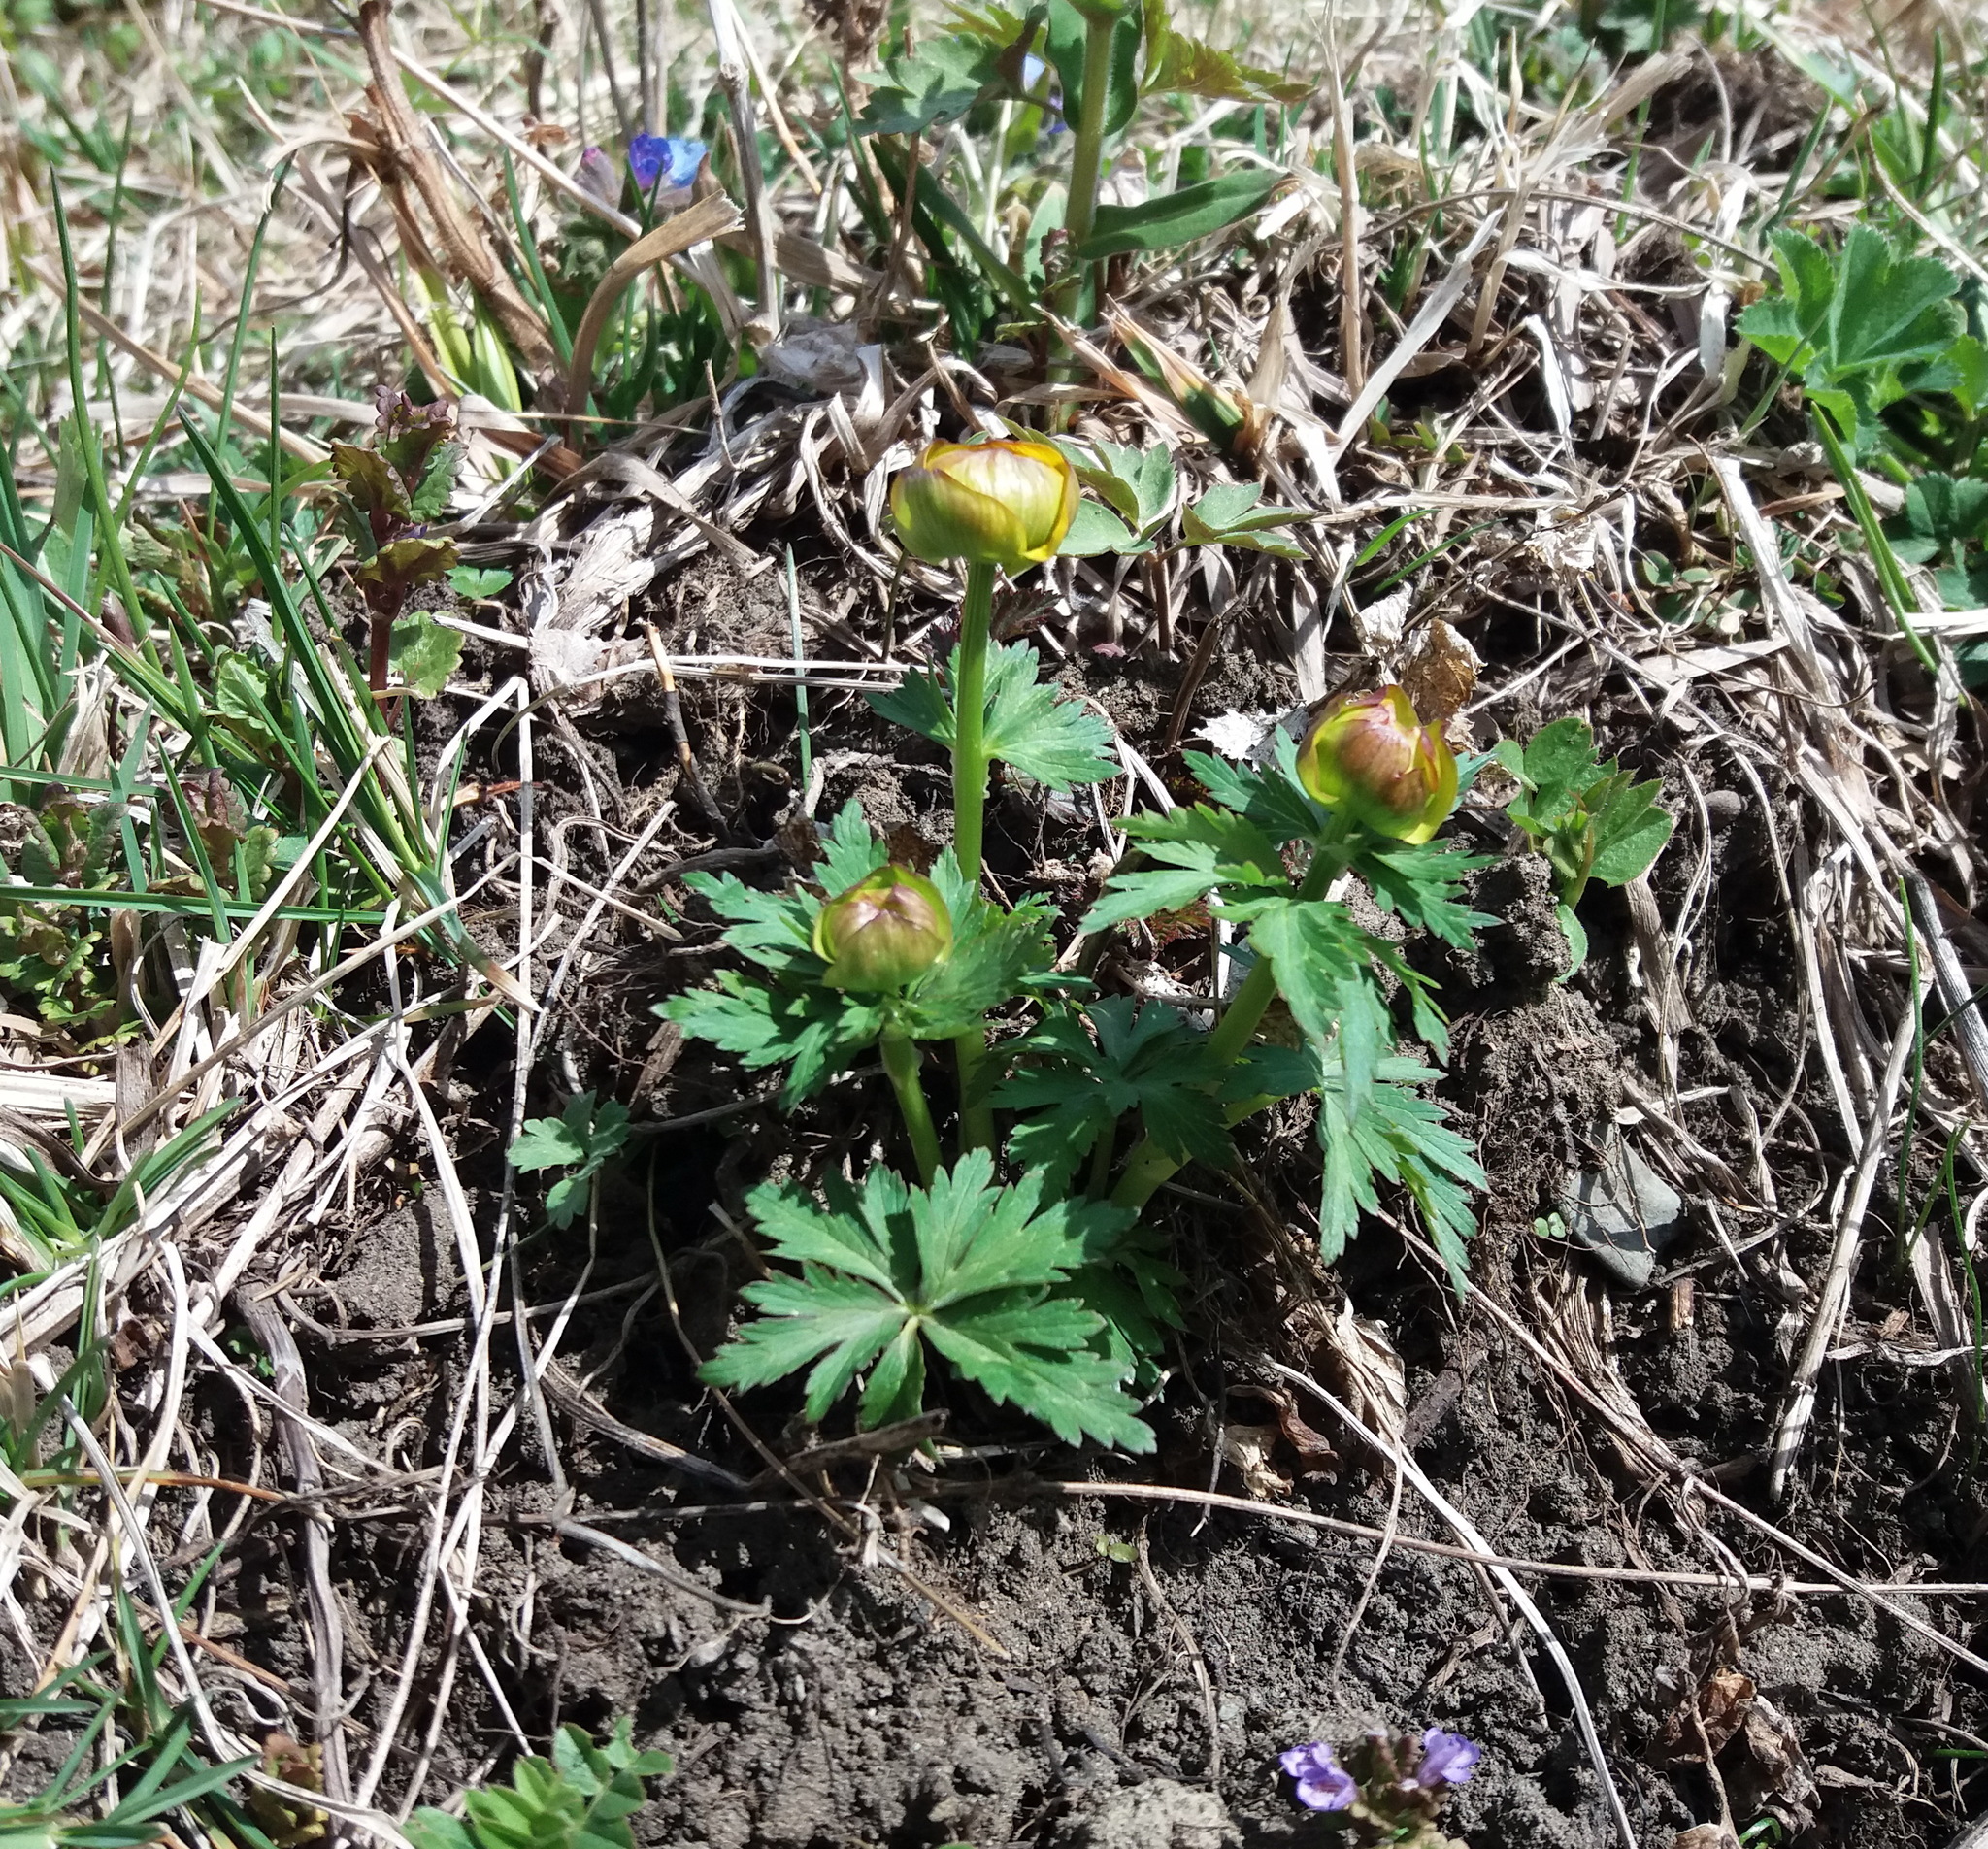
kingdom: Plantae
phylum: Tracheophyta
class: Magnoliopsida
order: Ranunculales
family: Ranunculaceae
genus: Trollius
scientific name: Trollius asiaticus
